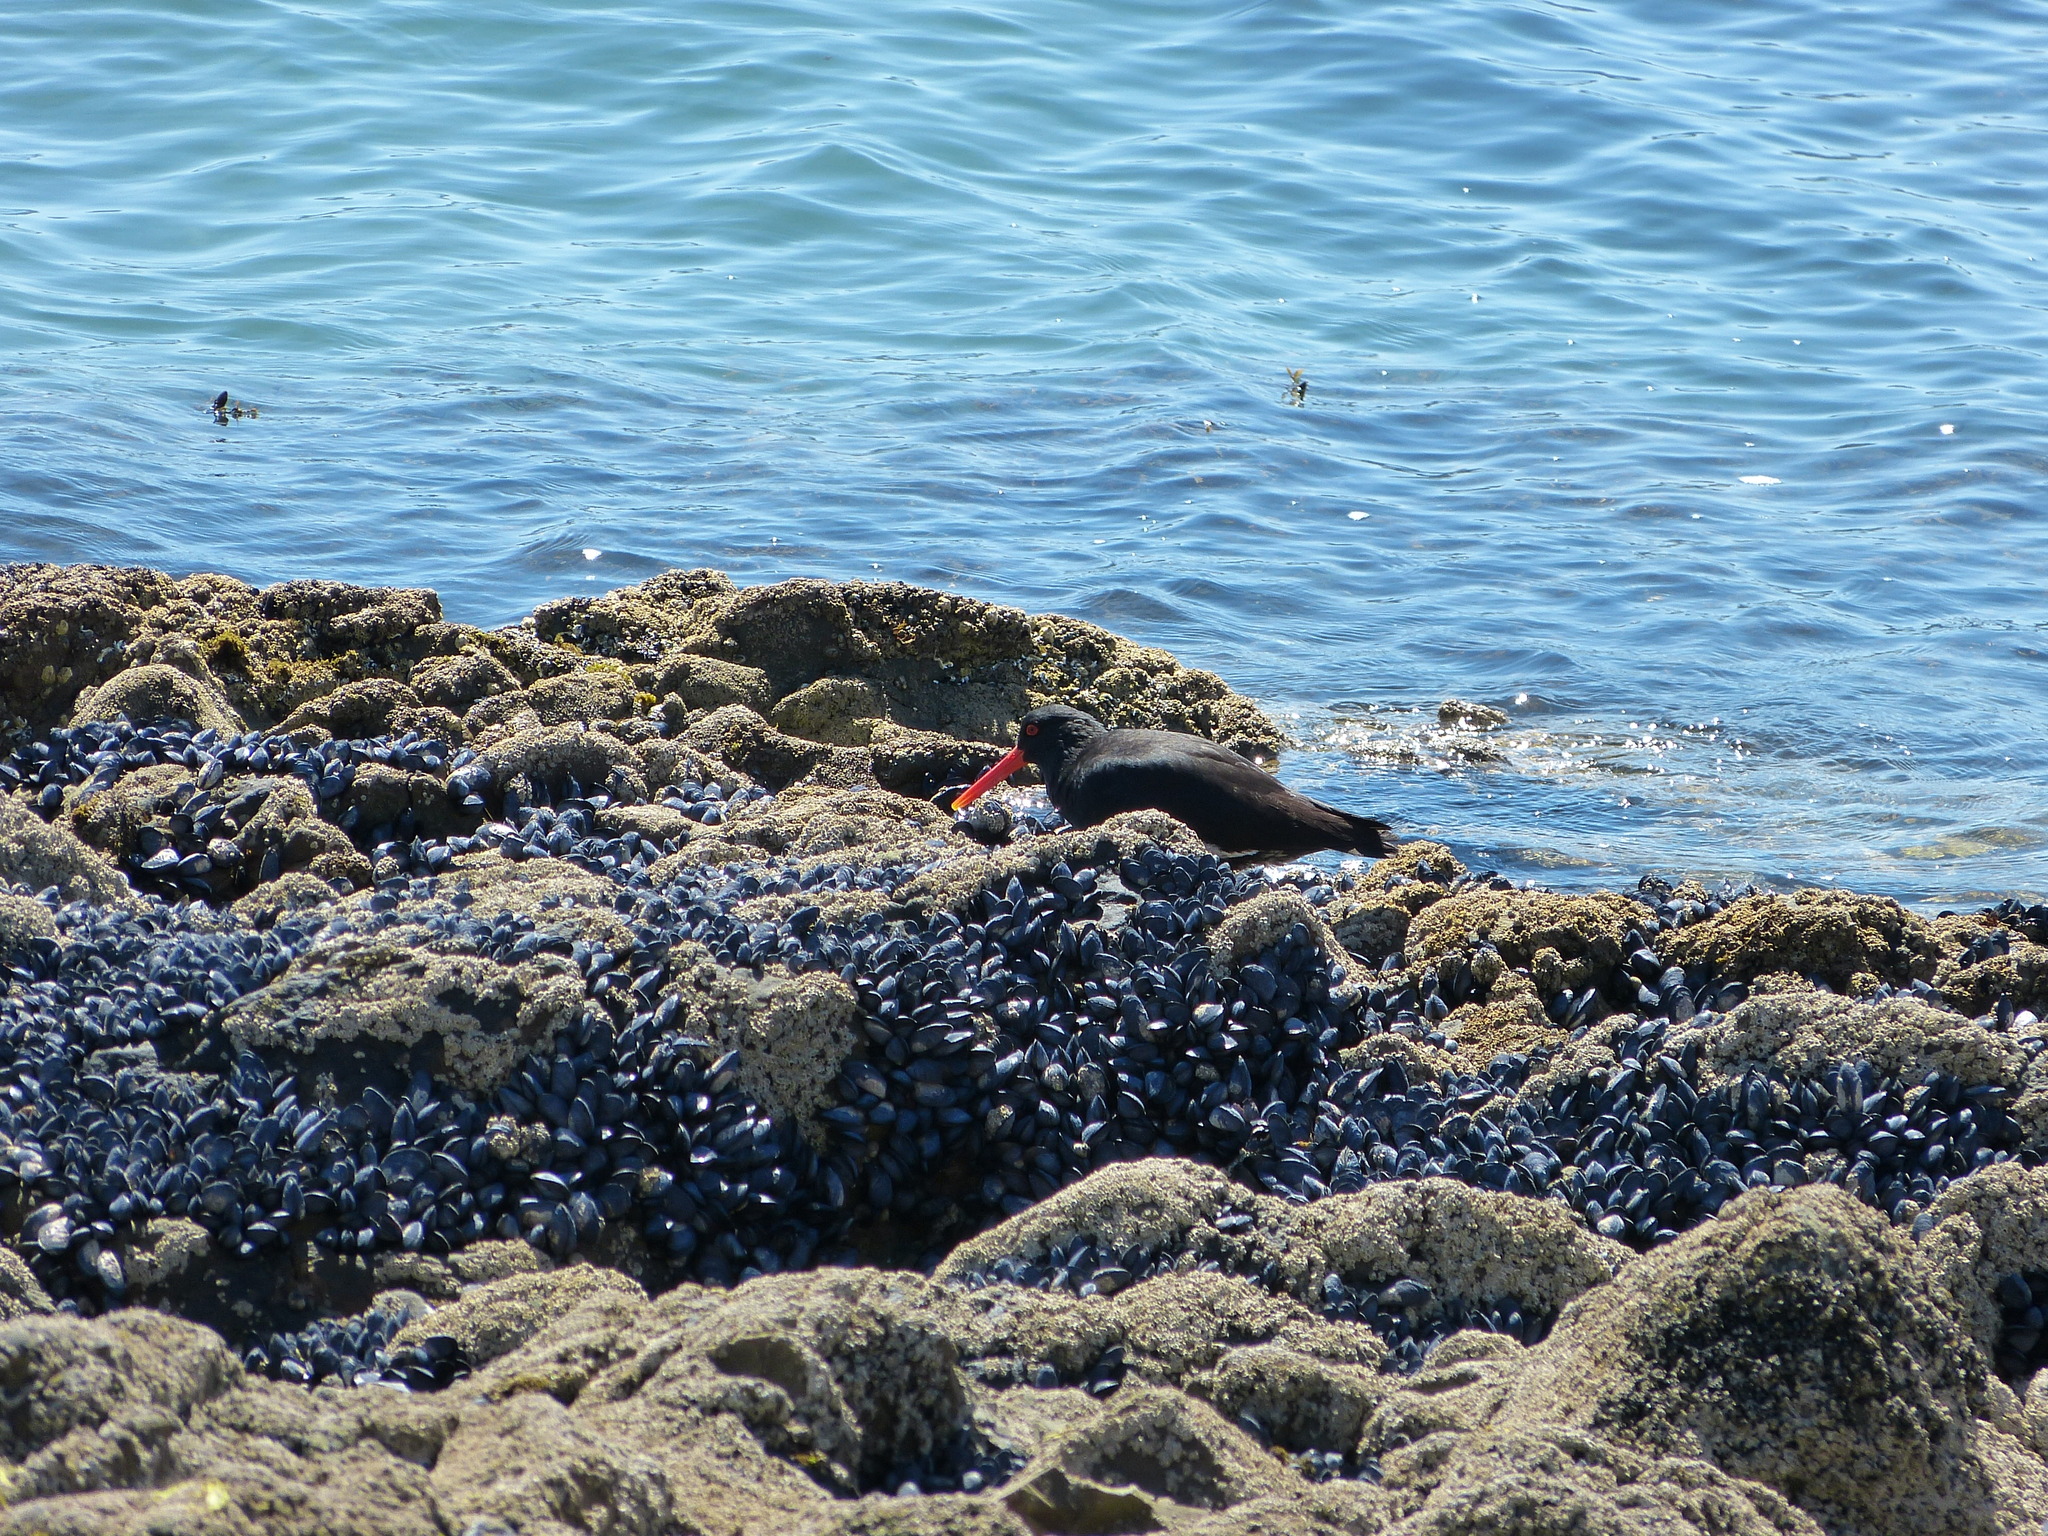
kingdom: Animalia
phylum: Chordata
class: Aves
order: Charadriiformes
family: Haematopodidae
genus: Haematopus
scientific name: Haematopus unicolor
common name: Variable oystercatcher
